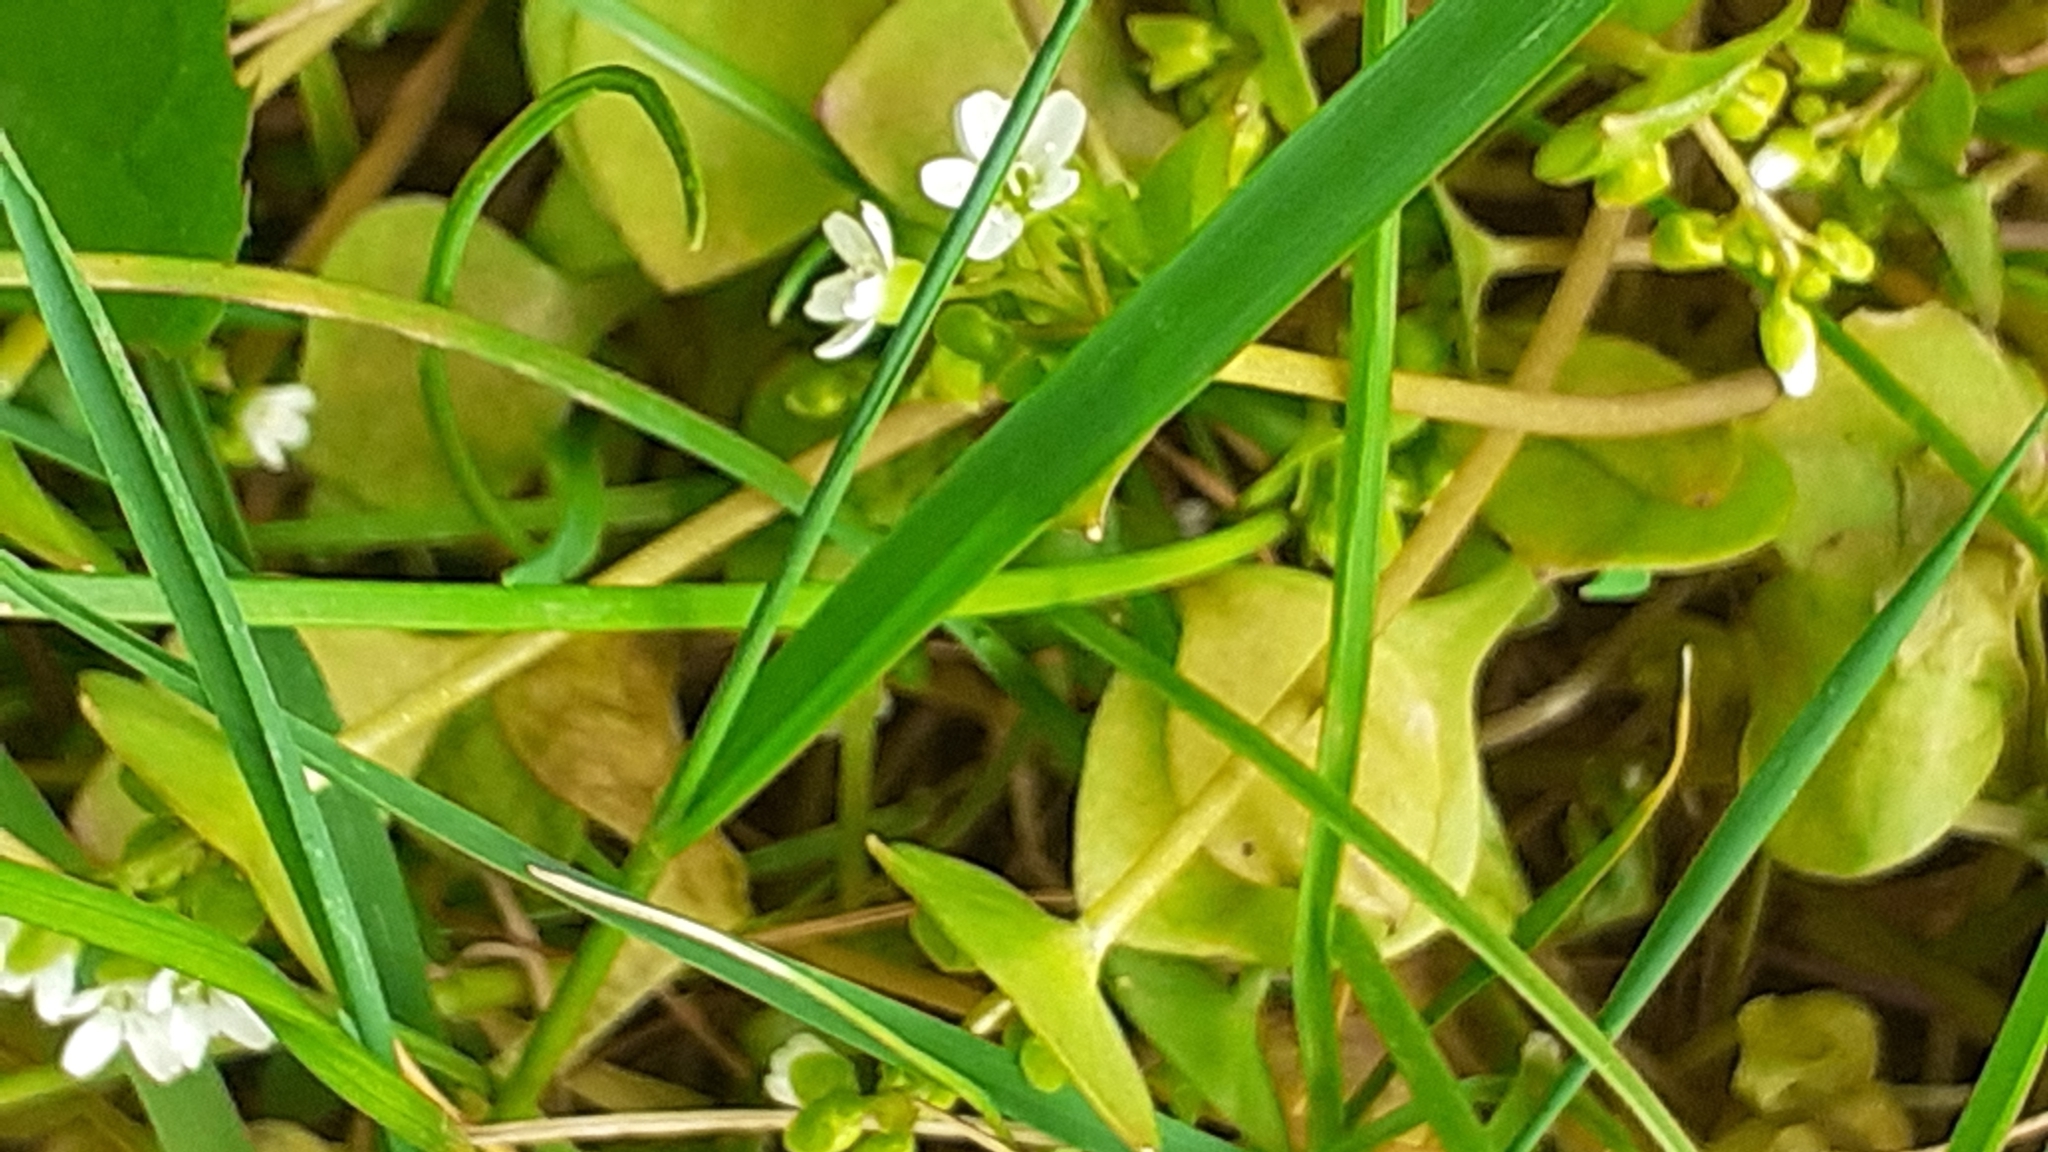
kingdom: Plantae
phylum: Tracheophyta
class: Magnoliopsida
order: Caryophyllales
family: Montiaceae
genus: Claytonia
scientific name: Claytonia perfoliata
